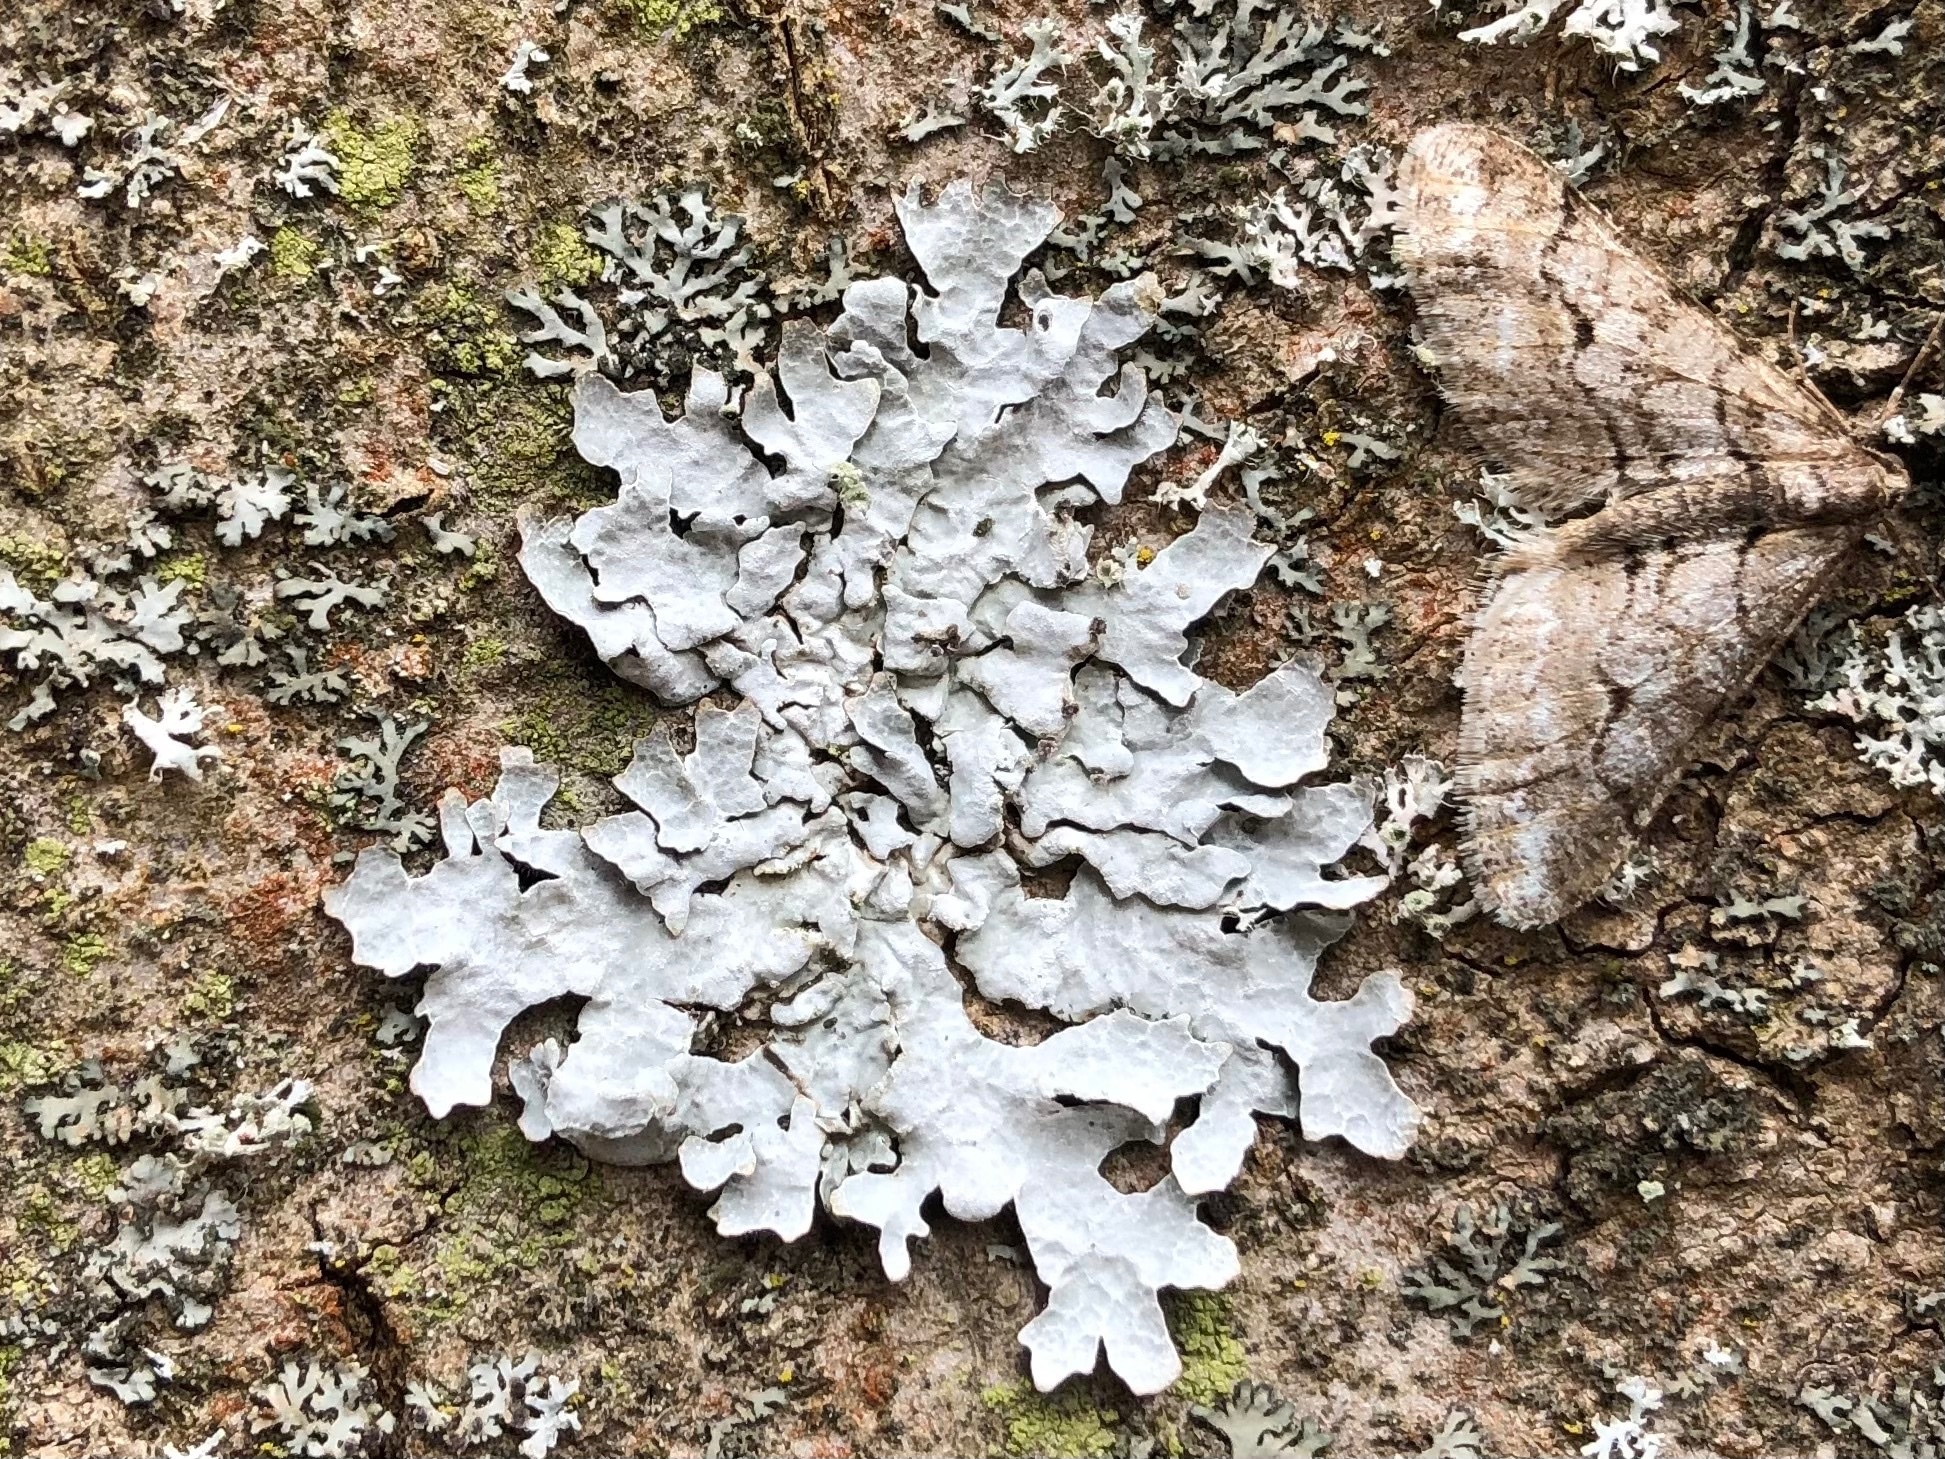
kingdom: Fungi
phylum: Ascomycota
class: Lecanoromycetes
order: Lecanorales
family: Parmeliaceae
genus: Parmelia
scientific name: Parmelia sulcata
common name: Netted shield lichen
